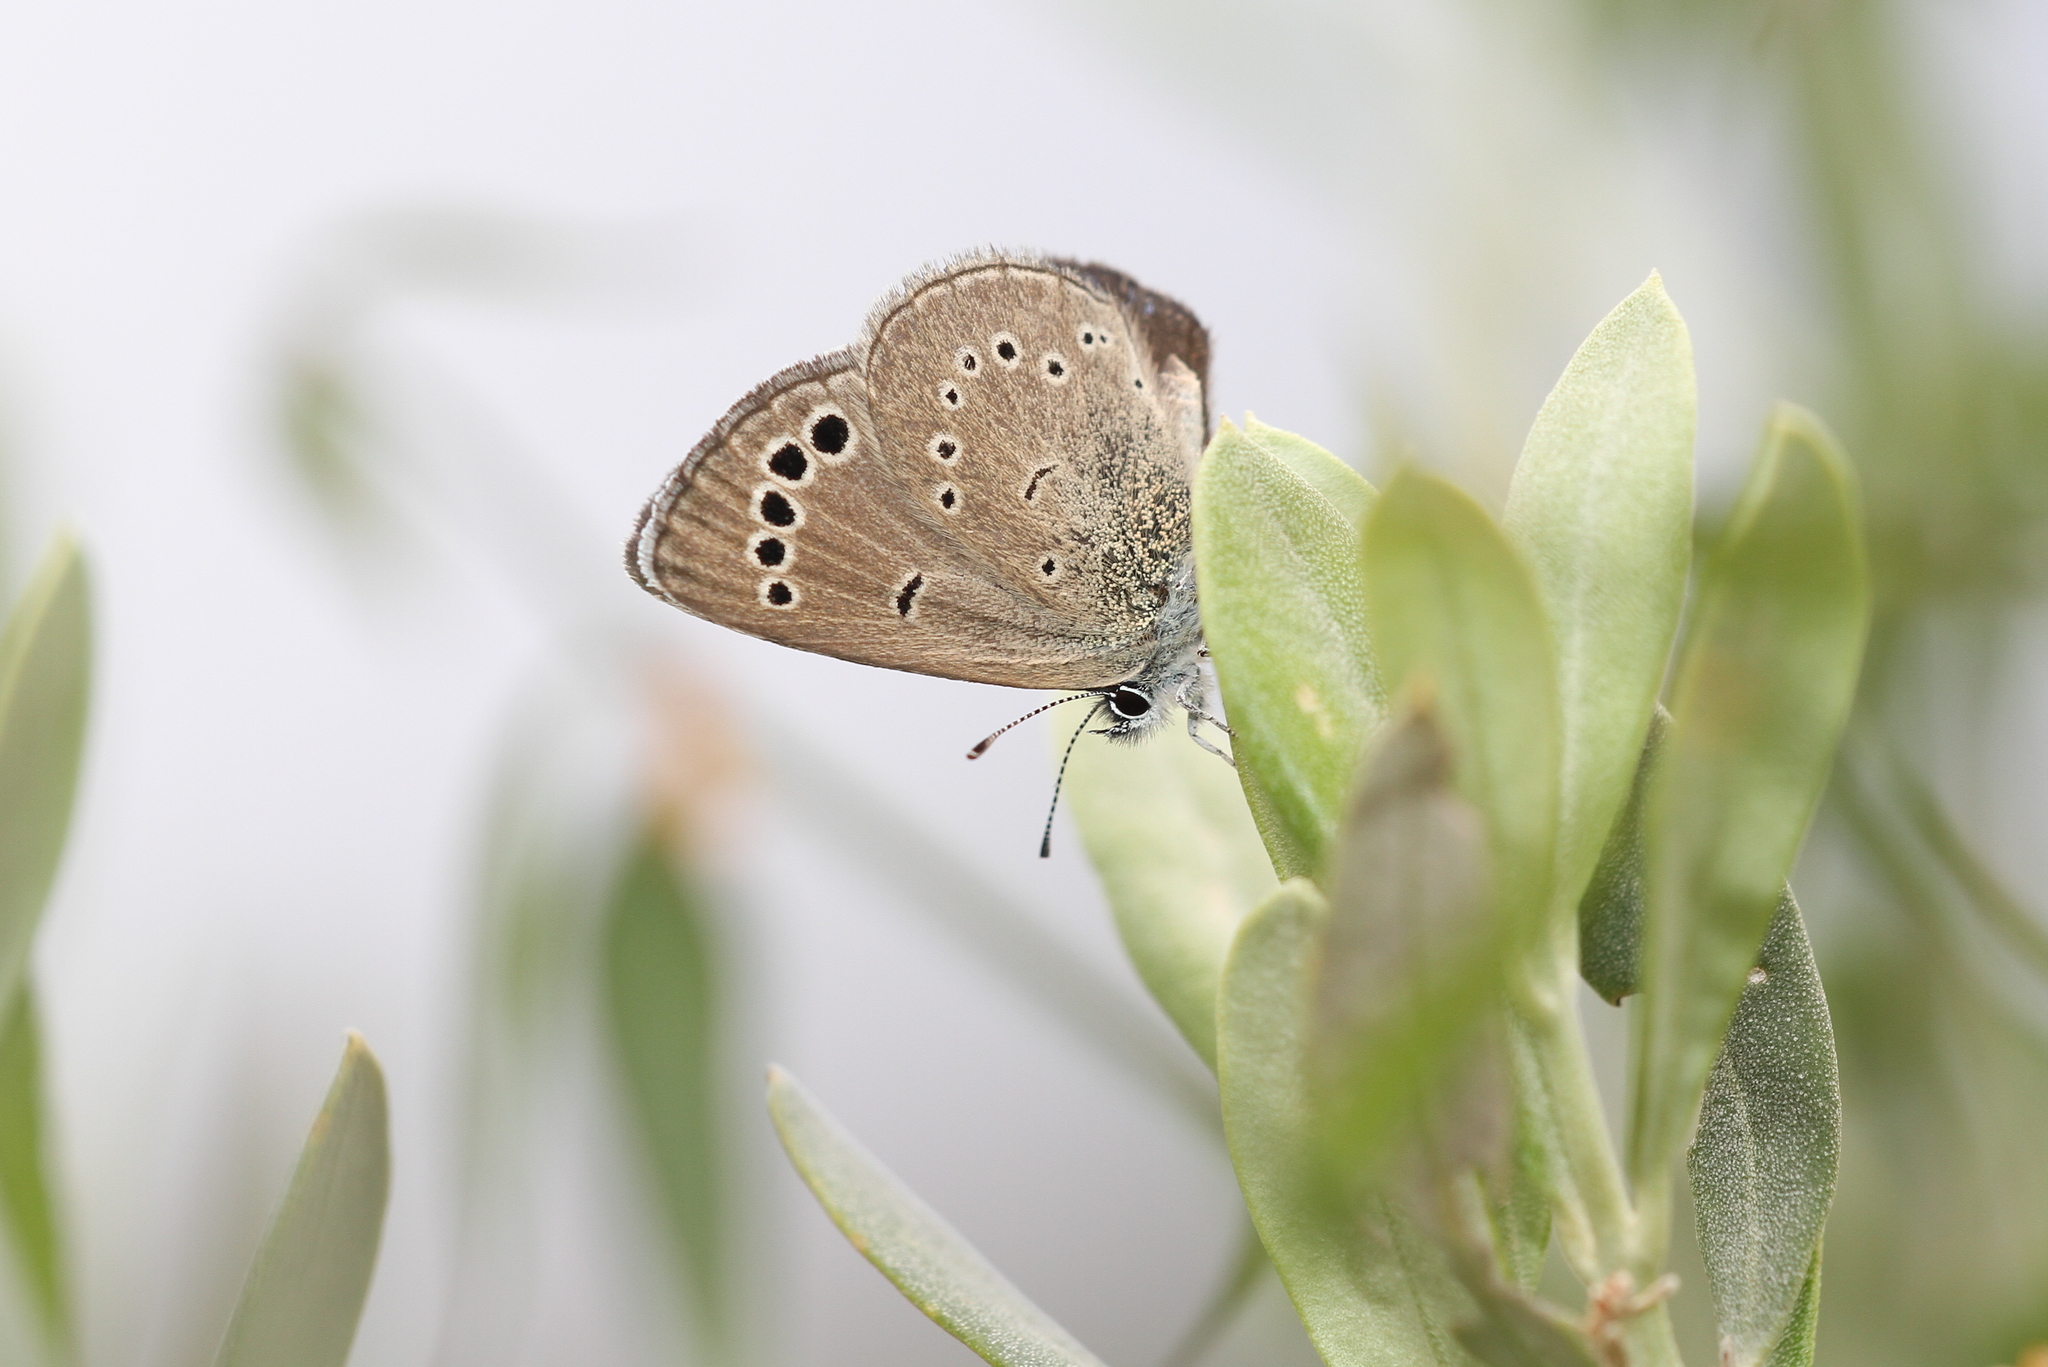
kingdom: Animalia
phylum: Arthropoda
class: Insecta
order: Lepidoptera
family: Lycaenidae
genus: Glaucopsyche
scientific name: Glaucopsyche paphos
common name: Paphos blue
